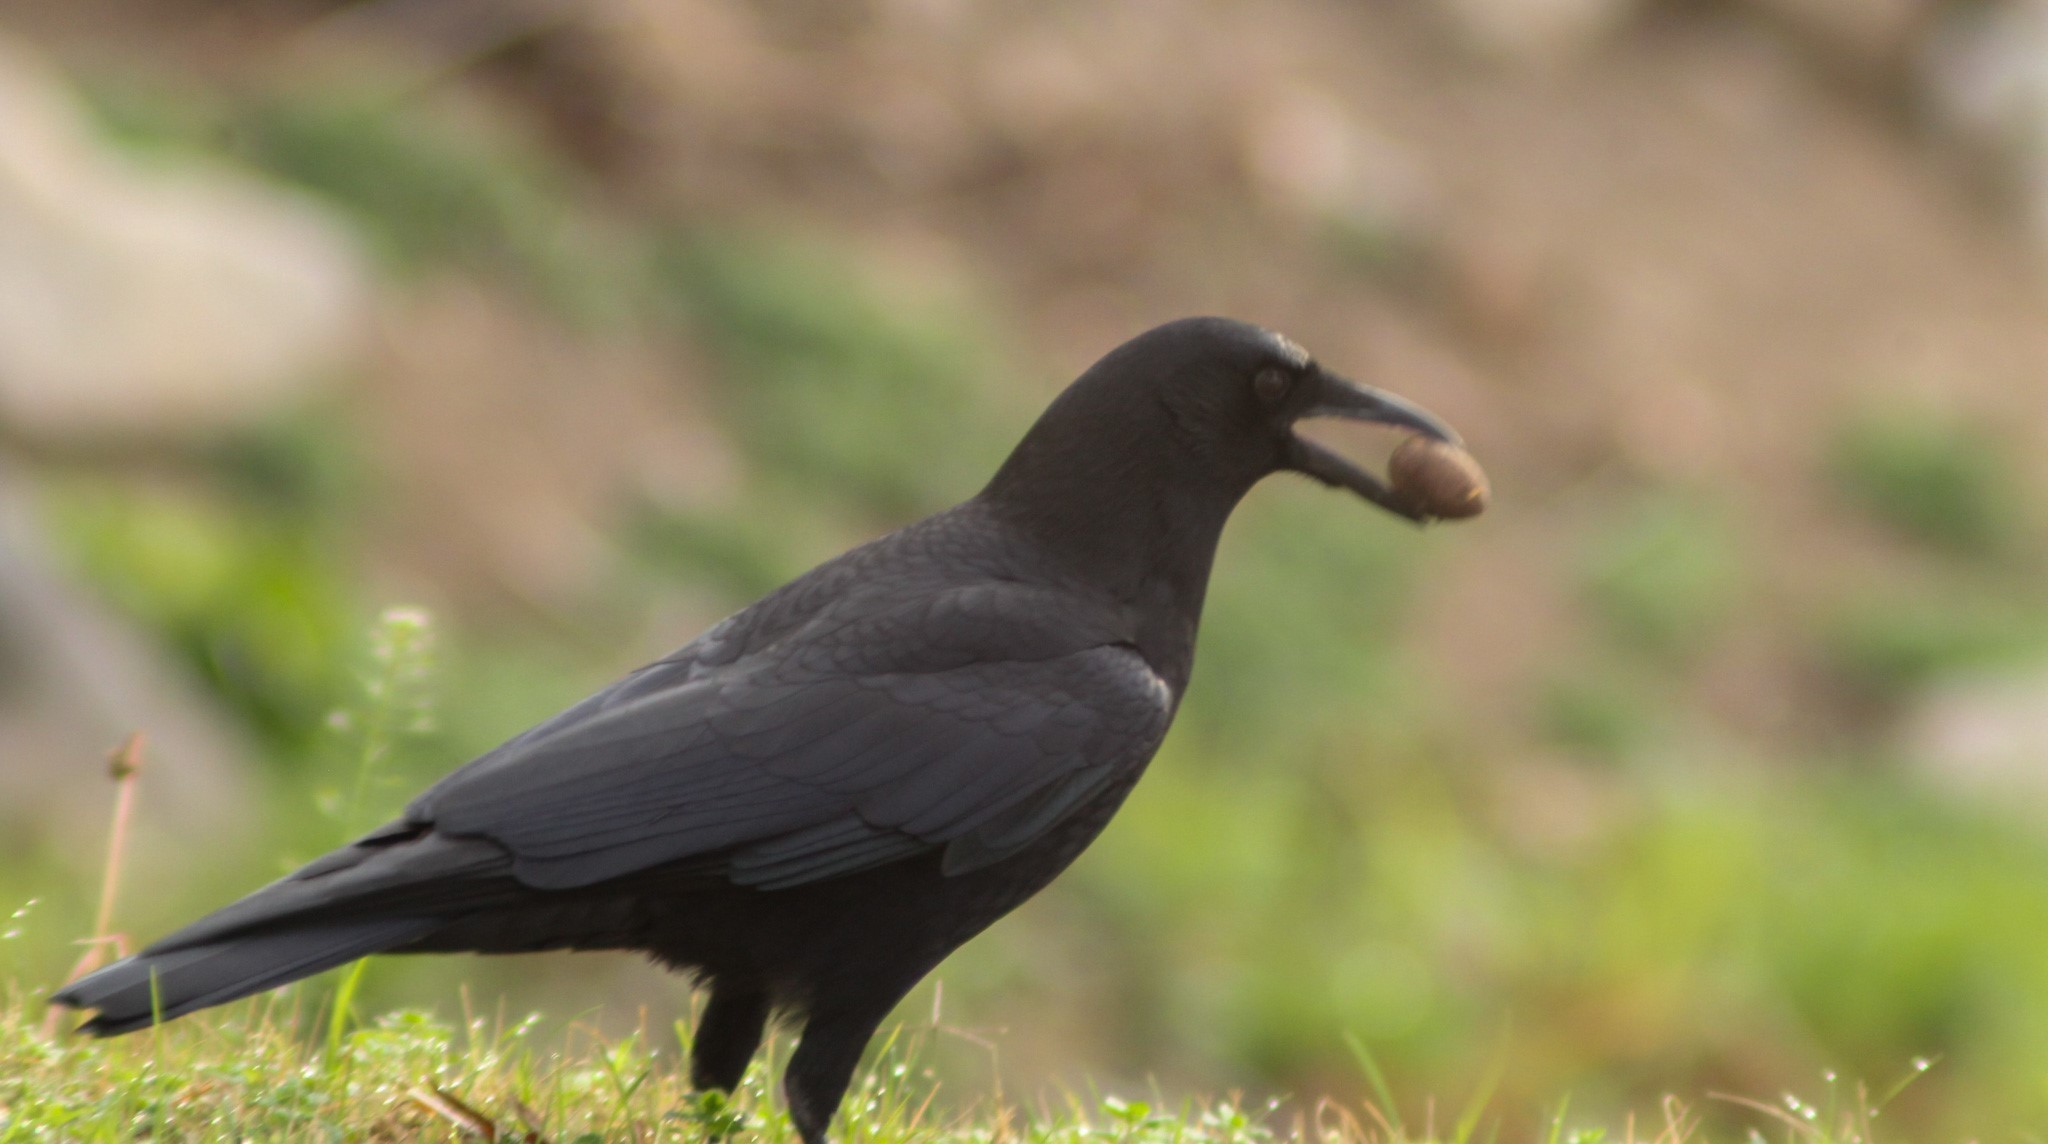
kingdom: Animalia
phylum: Chordata
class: Aves
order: Passeriformes
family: Corvidae
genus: Corvus
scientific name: Corvus brachyrhynchos
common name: American crow
